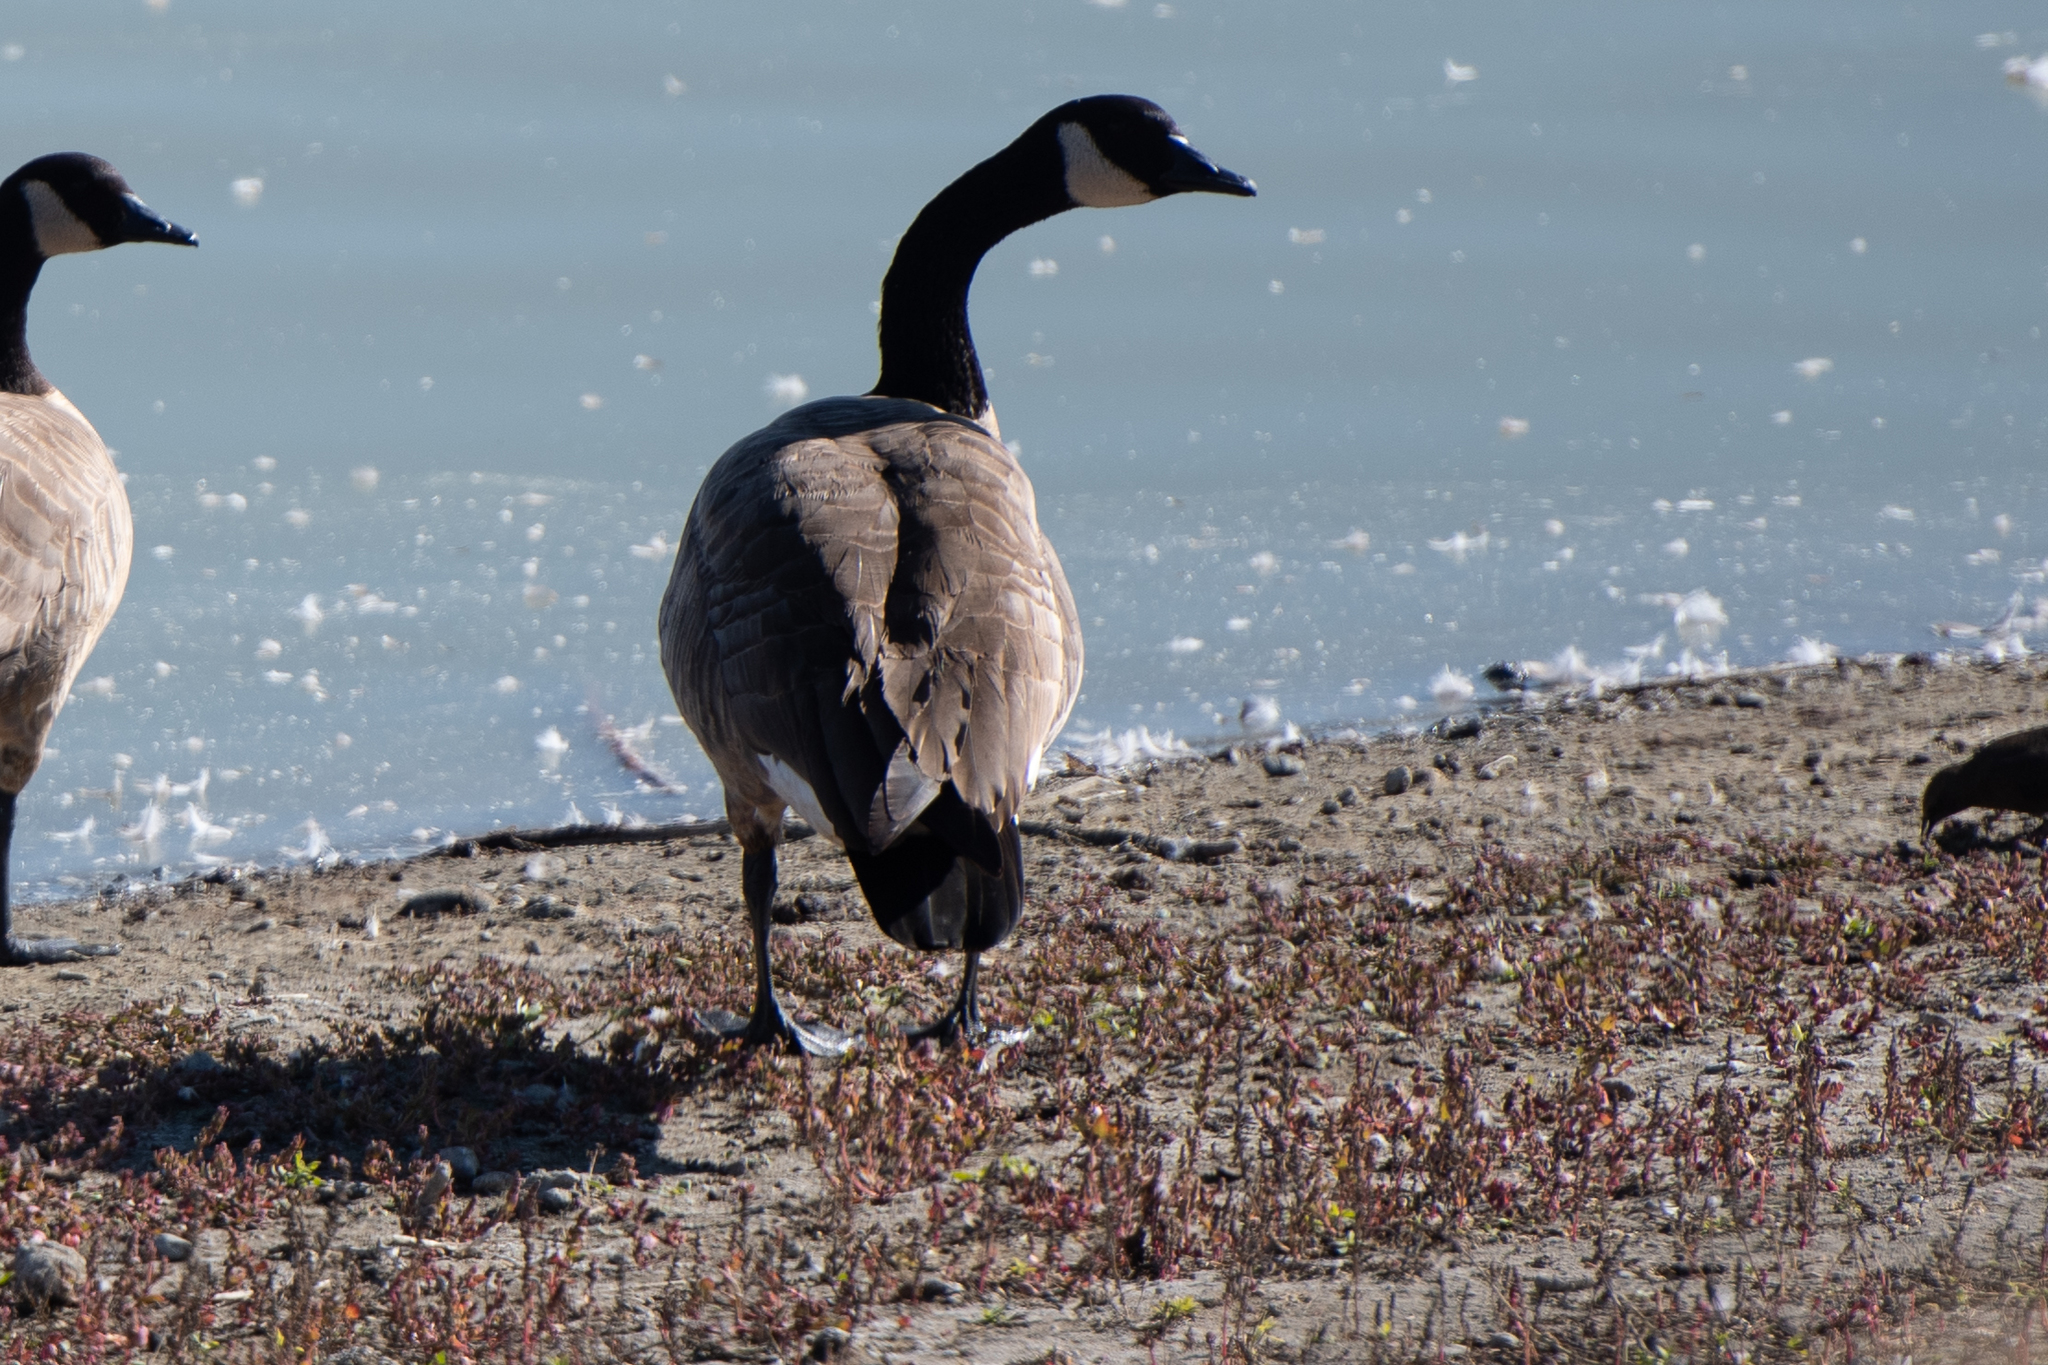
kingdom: Animalia
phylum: Chordata
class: Aves
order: Anseriformes
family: Anatidae
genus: Branta
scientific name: Branta canadensis
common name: Canada goose
